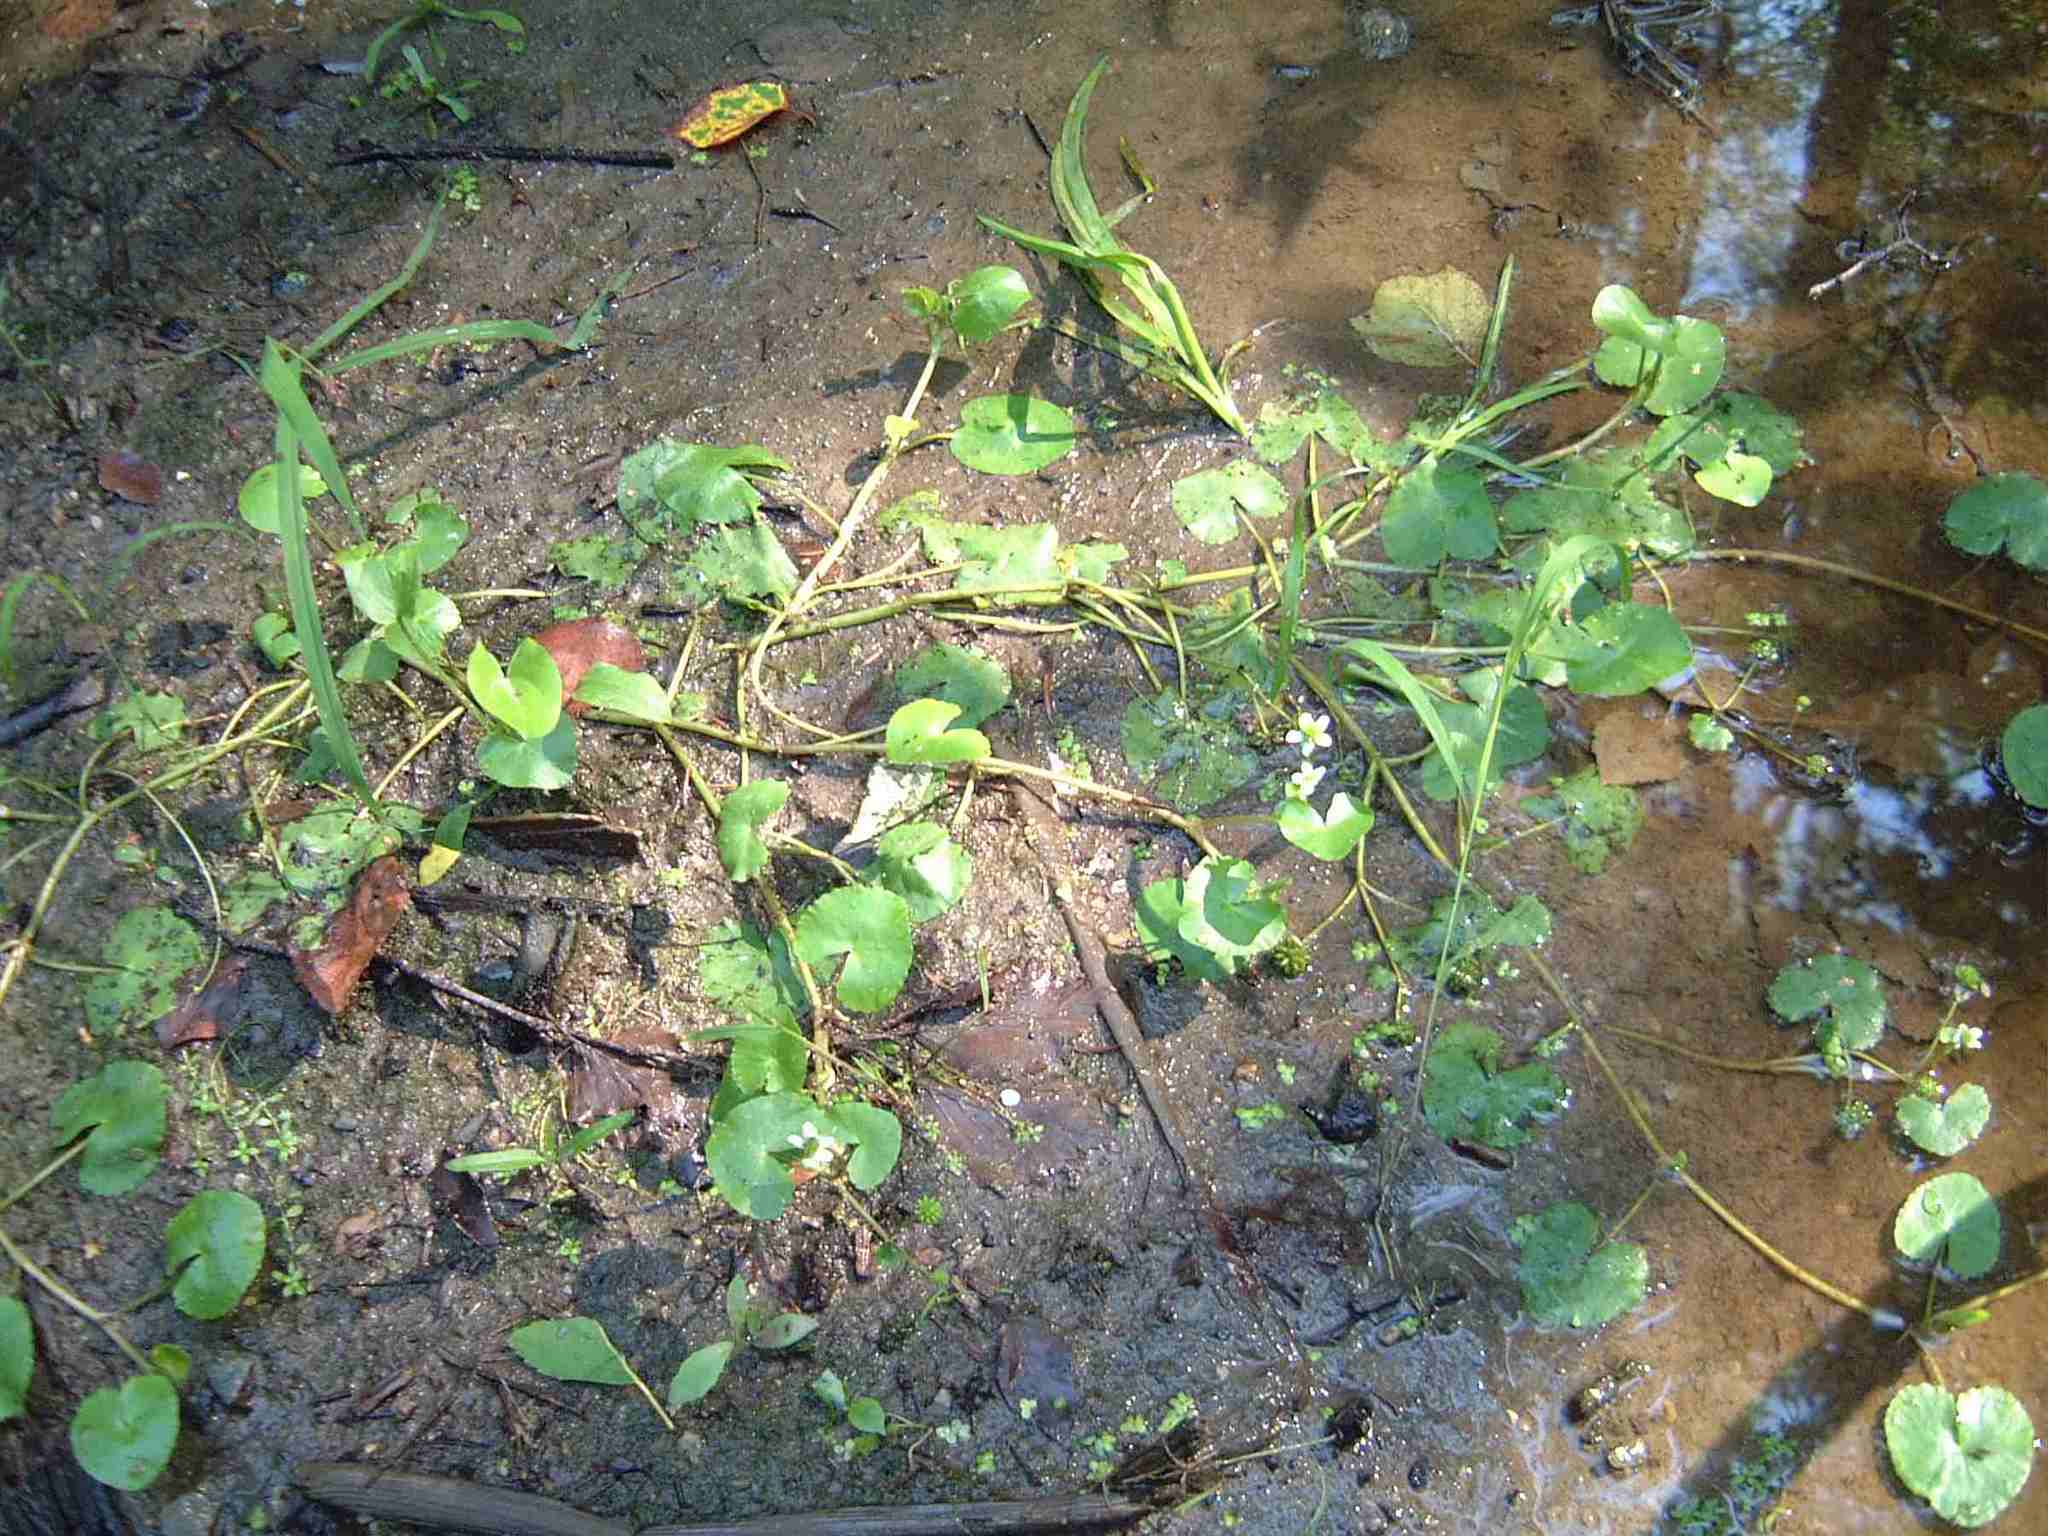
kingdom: Plantae
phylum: Tracheophyta
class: Magnoliopsida
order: Ranunculales
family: Ranunculaceae
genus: Caltha
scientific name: Caltha natans
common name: Floating marsh marigold
